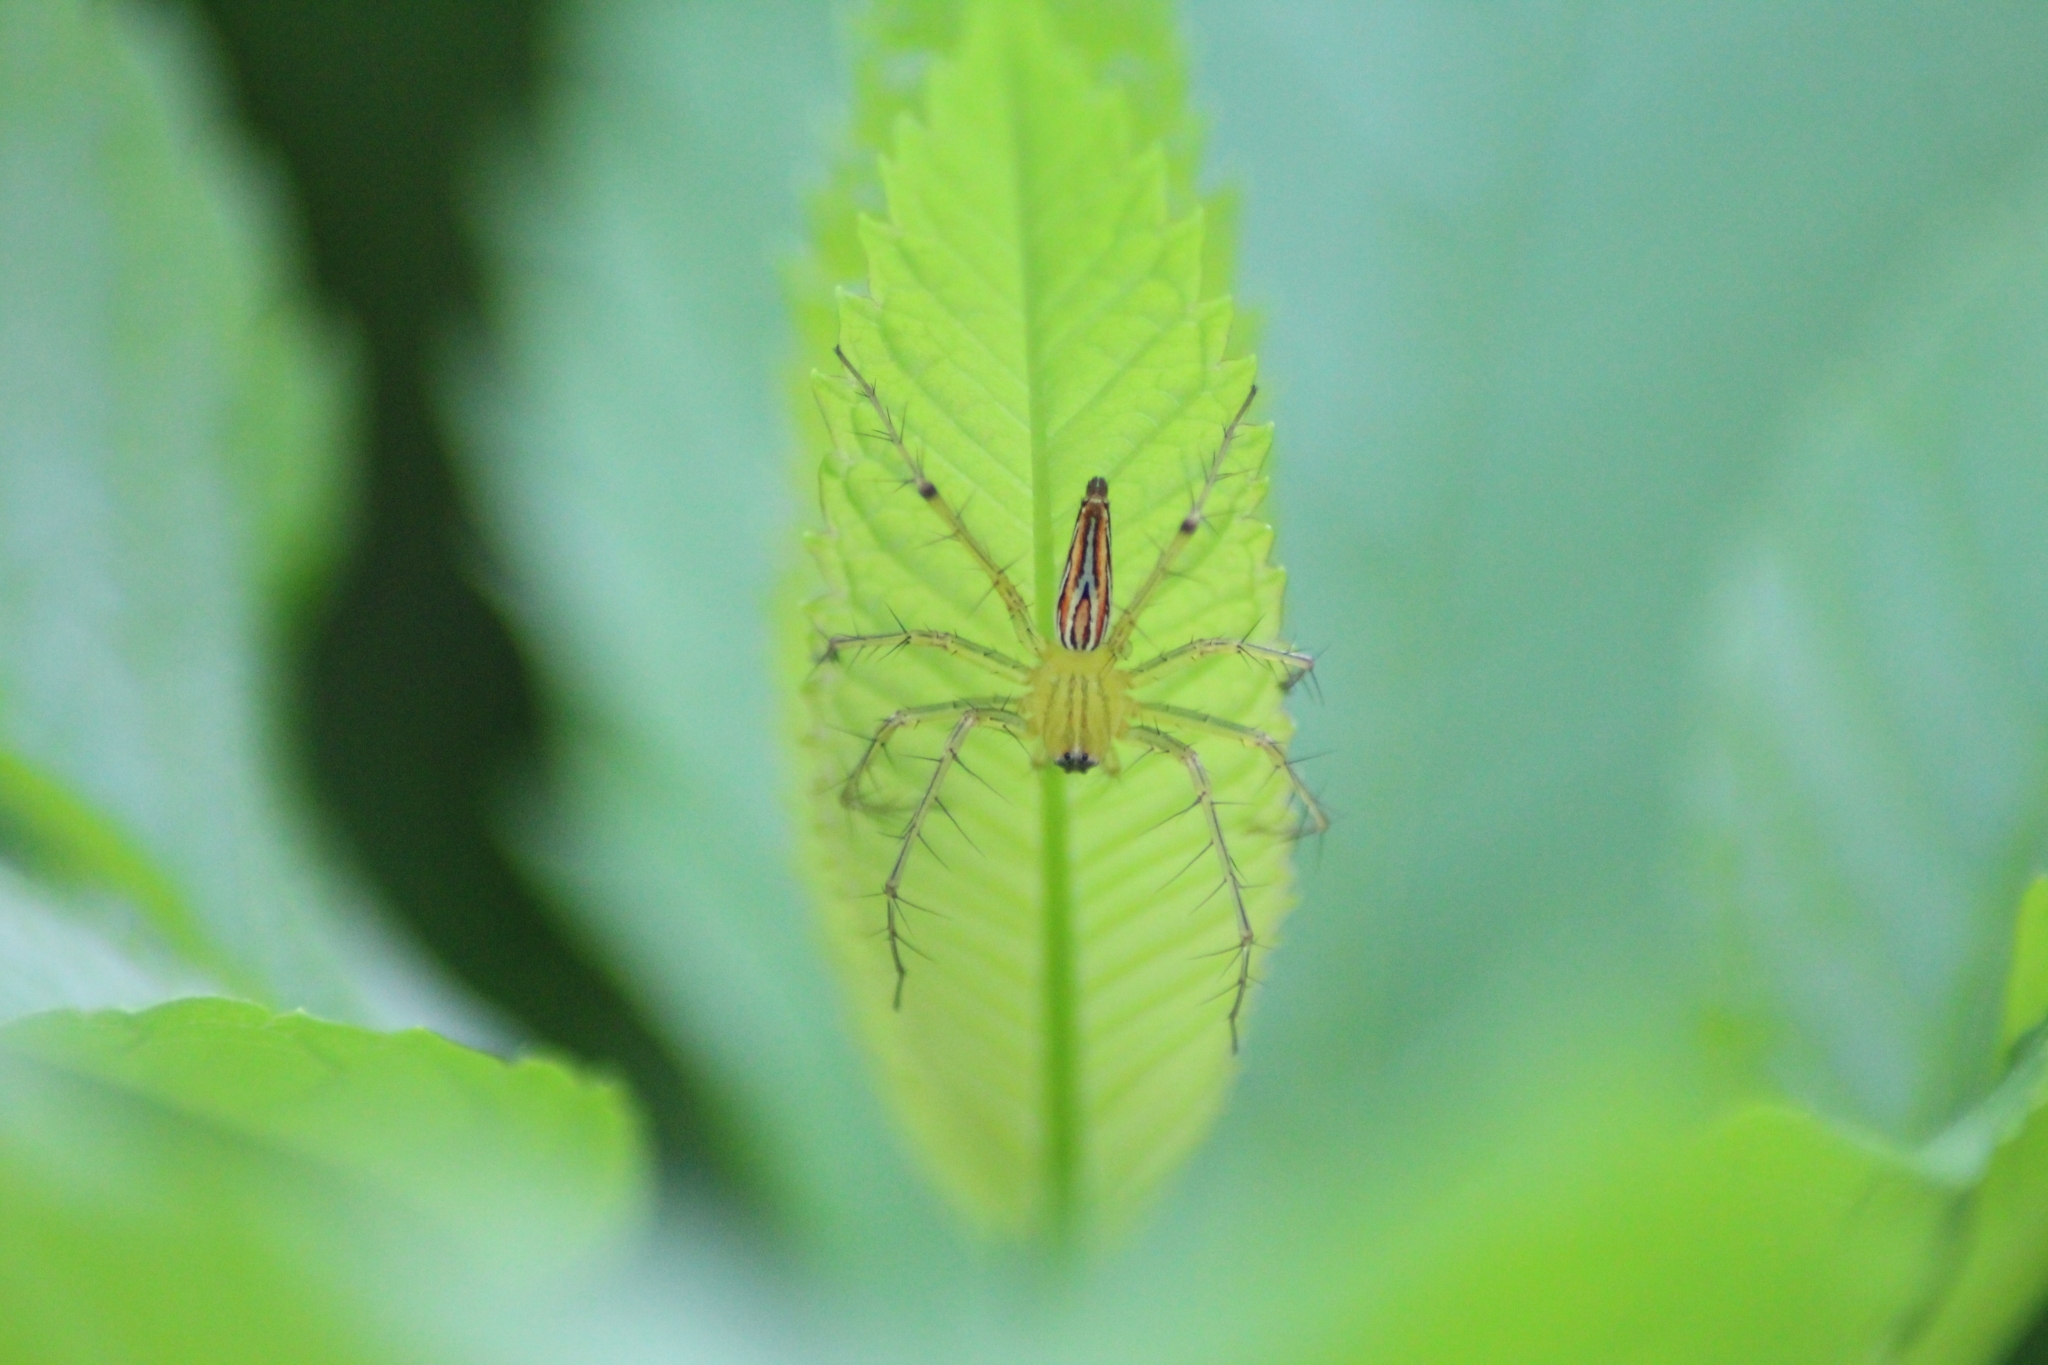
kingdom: Animalia
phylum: Arthropoda
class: Arachnida
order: Araneae
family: Oxyopidae
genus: Oxyopes
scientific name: Oxyopes macilentus
